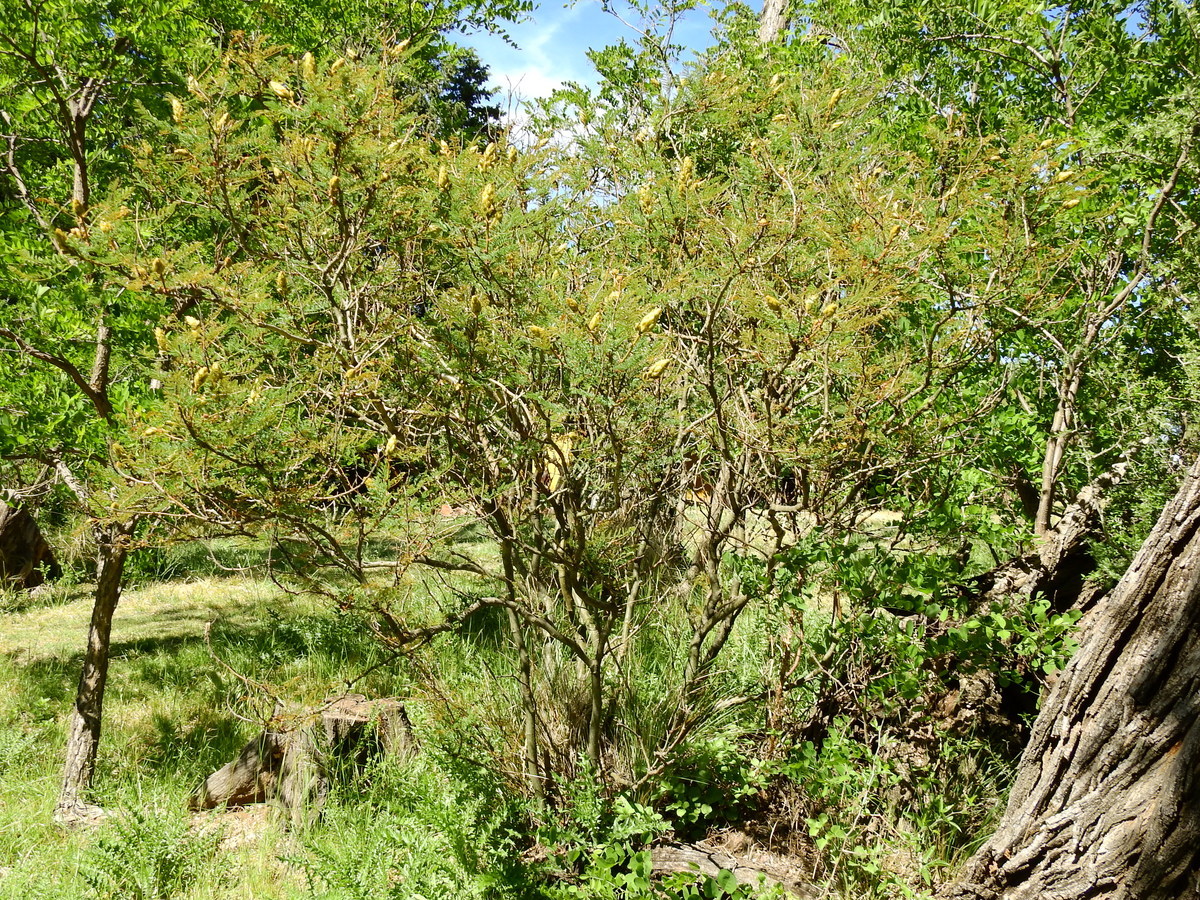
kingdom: Plantae
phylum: Tracheophyta
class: Magnoliopsida
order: Fabales
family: Fabaceae
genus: Erythrostemon
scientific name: Erythrostemon gilliesii
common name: Bird-of-paradise shrub
